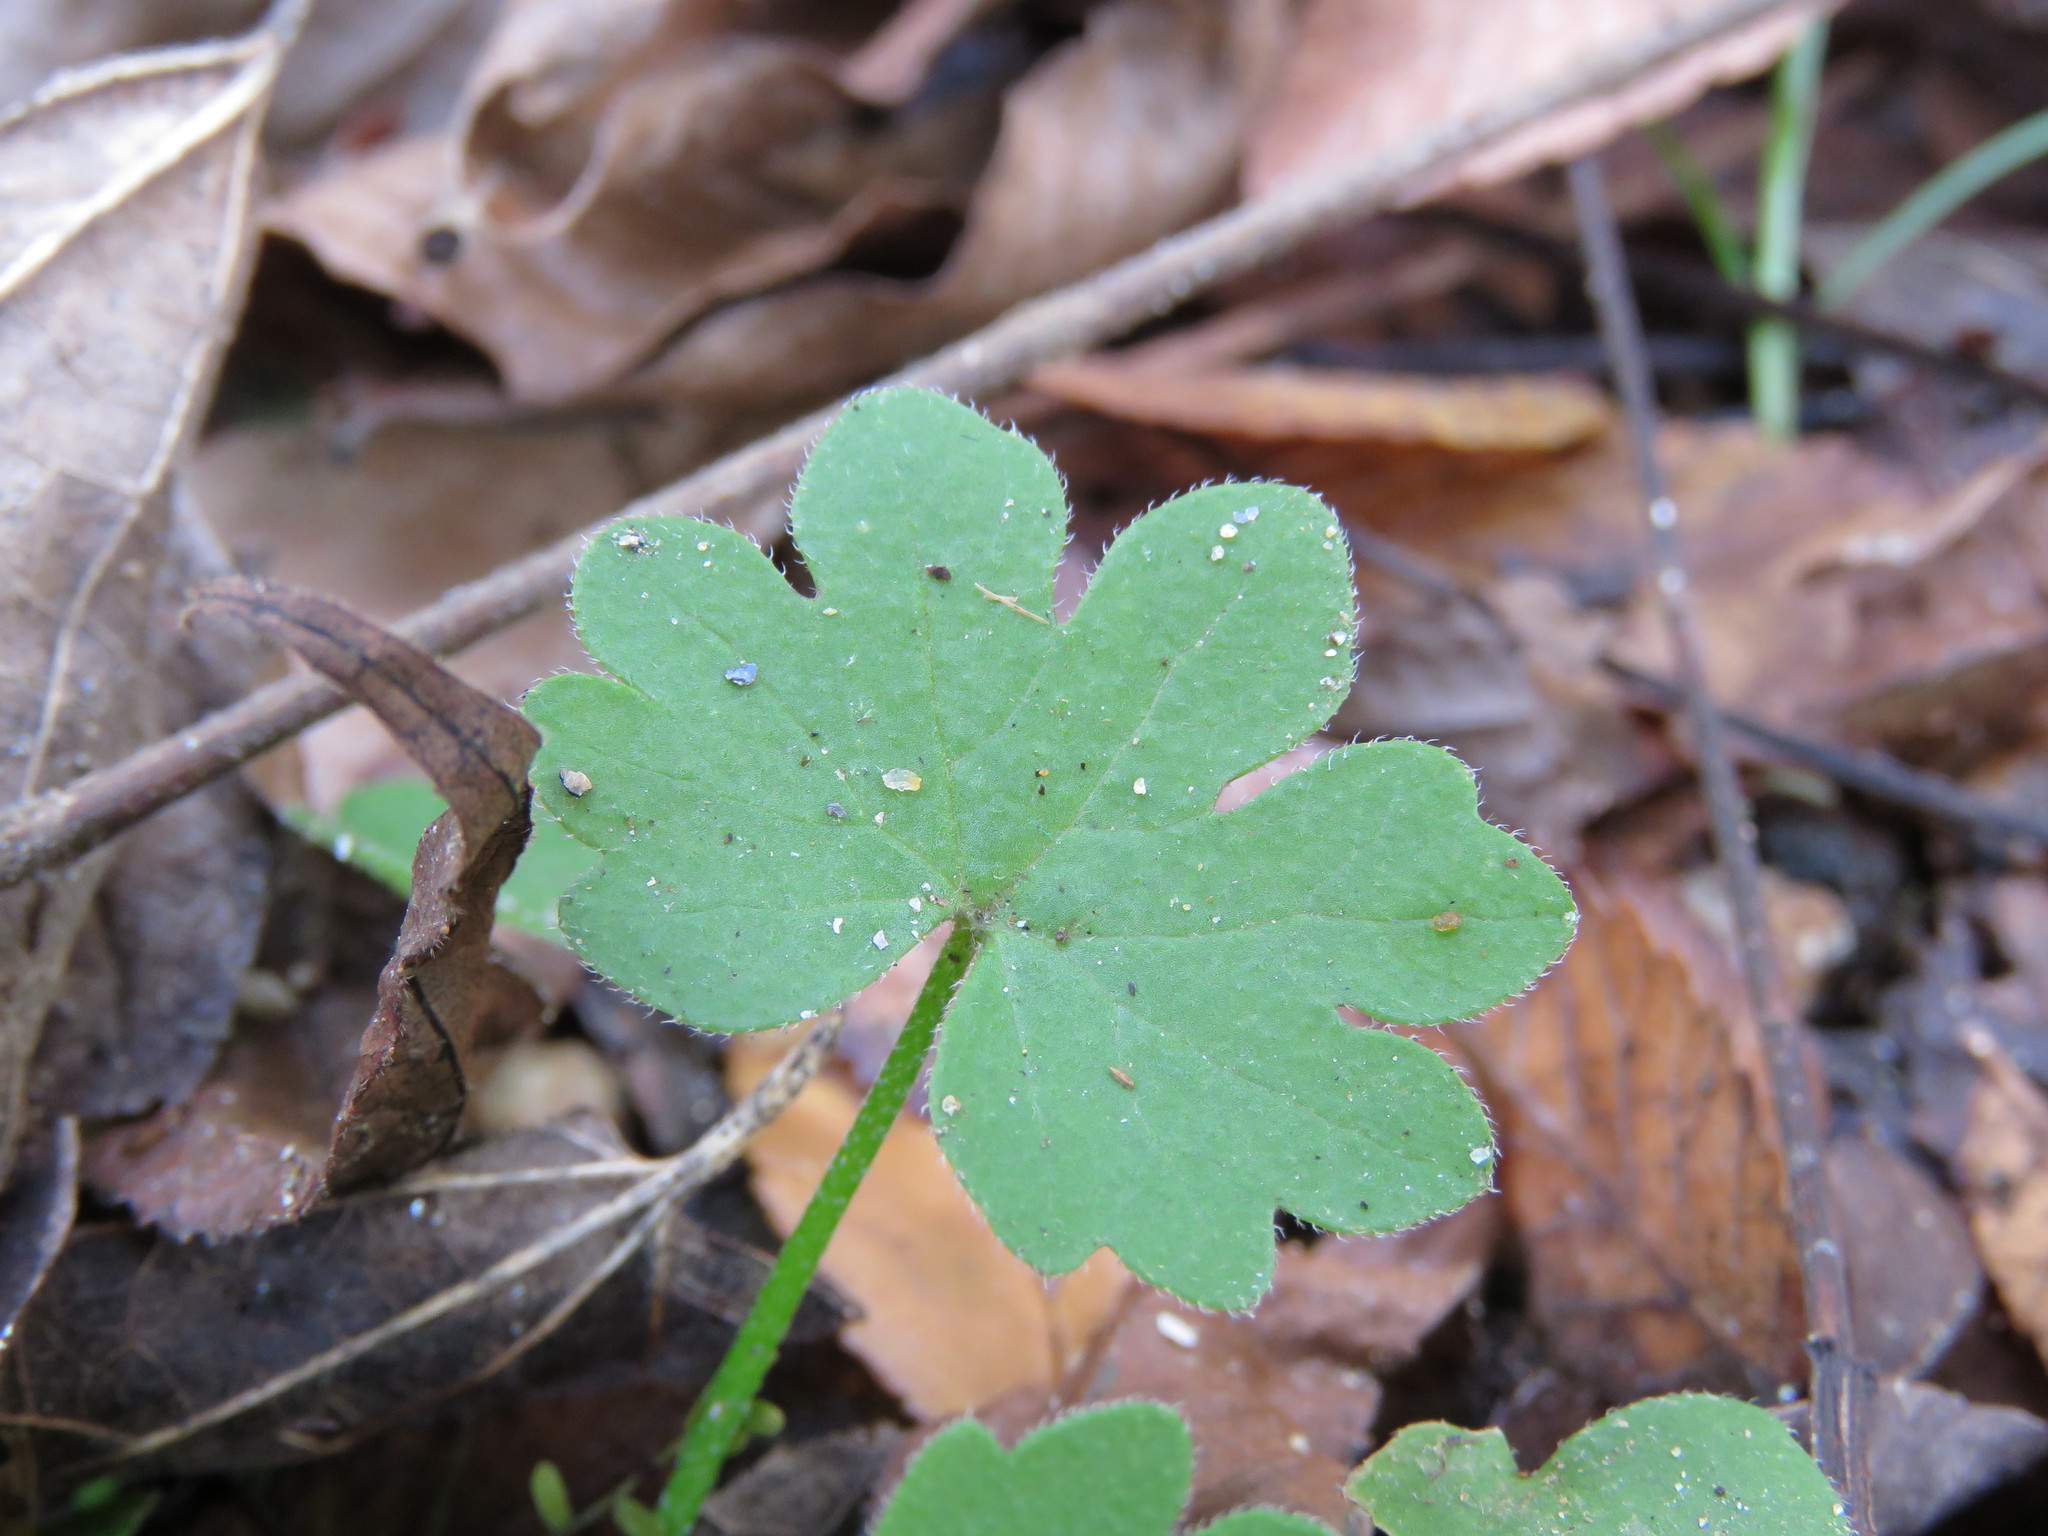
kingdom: Plantae
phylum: Tracheophyta
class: Magnoliopsida
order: Apiales
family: Apiaceae
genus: Bowlesia
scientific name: Bowlesia incana
